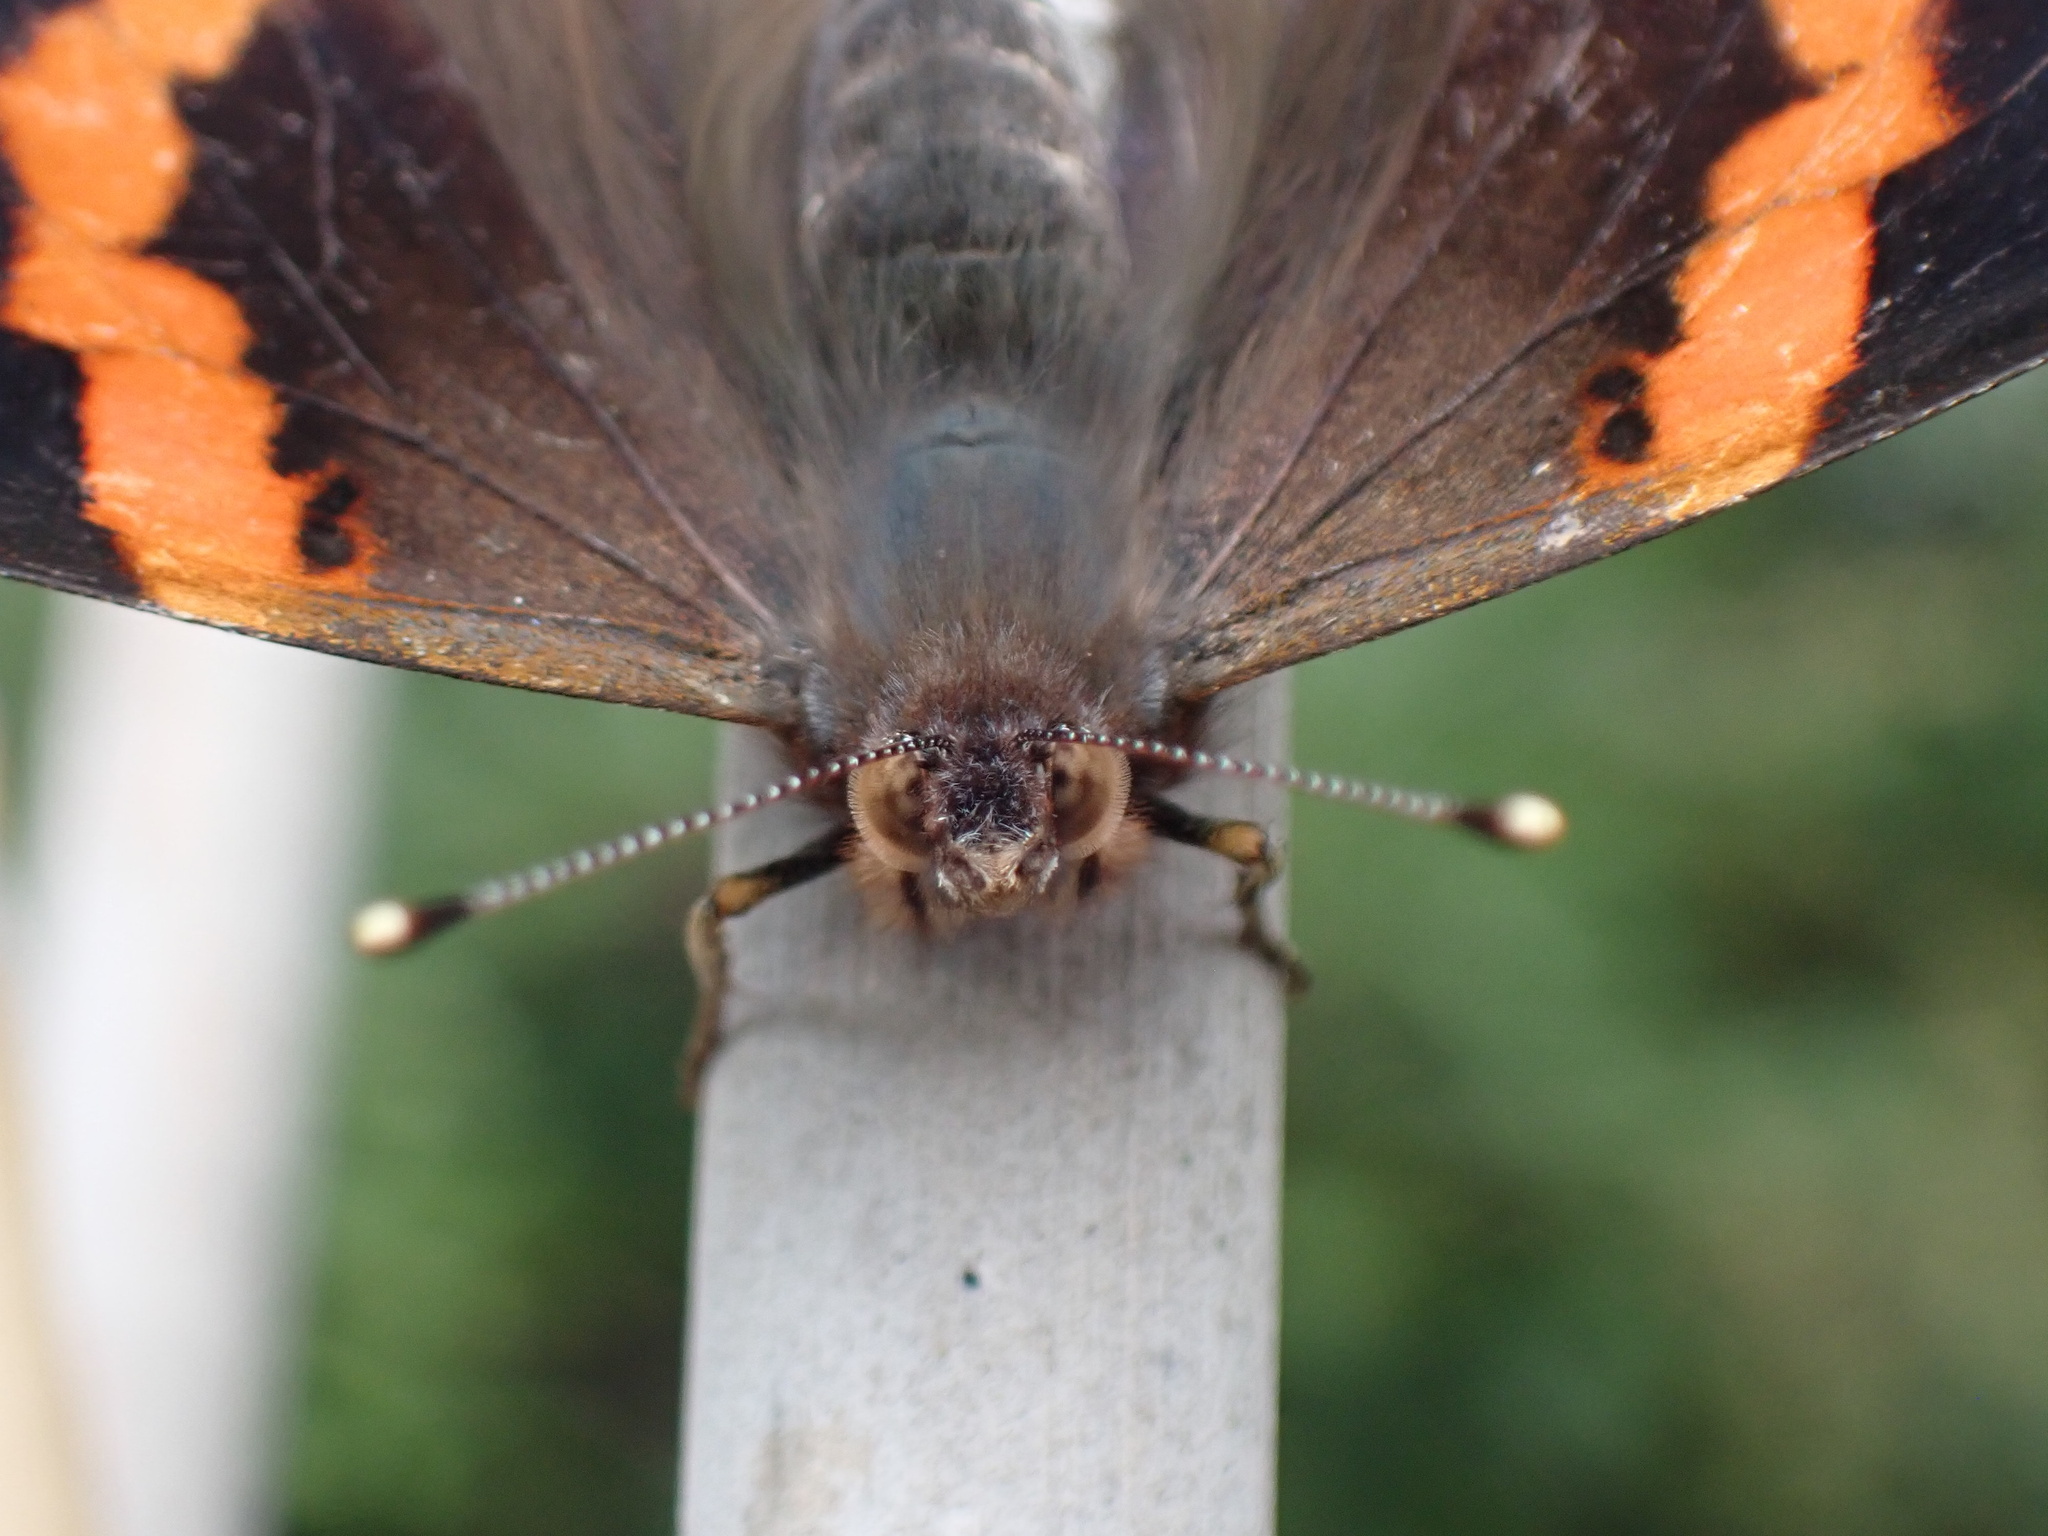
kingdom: Animalia
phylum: Arthropoda
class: Insecta
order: Lepidoptera
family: Nymphalidae
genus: Vanessa
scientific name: Vanessa atalanta
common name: Red admiral
